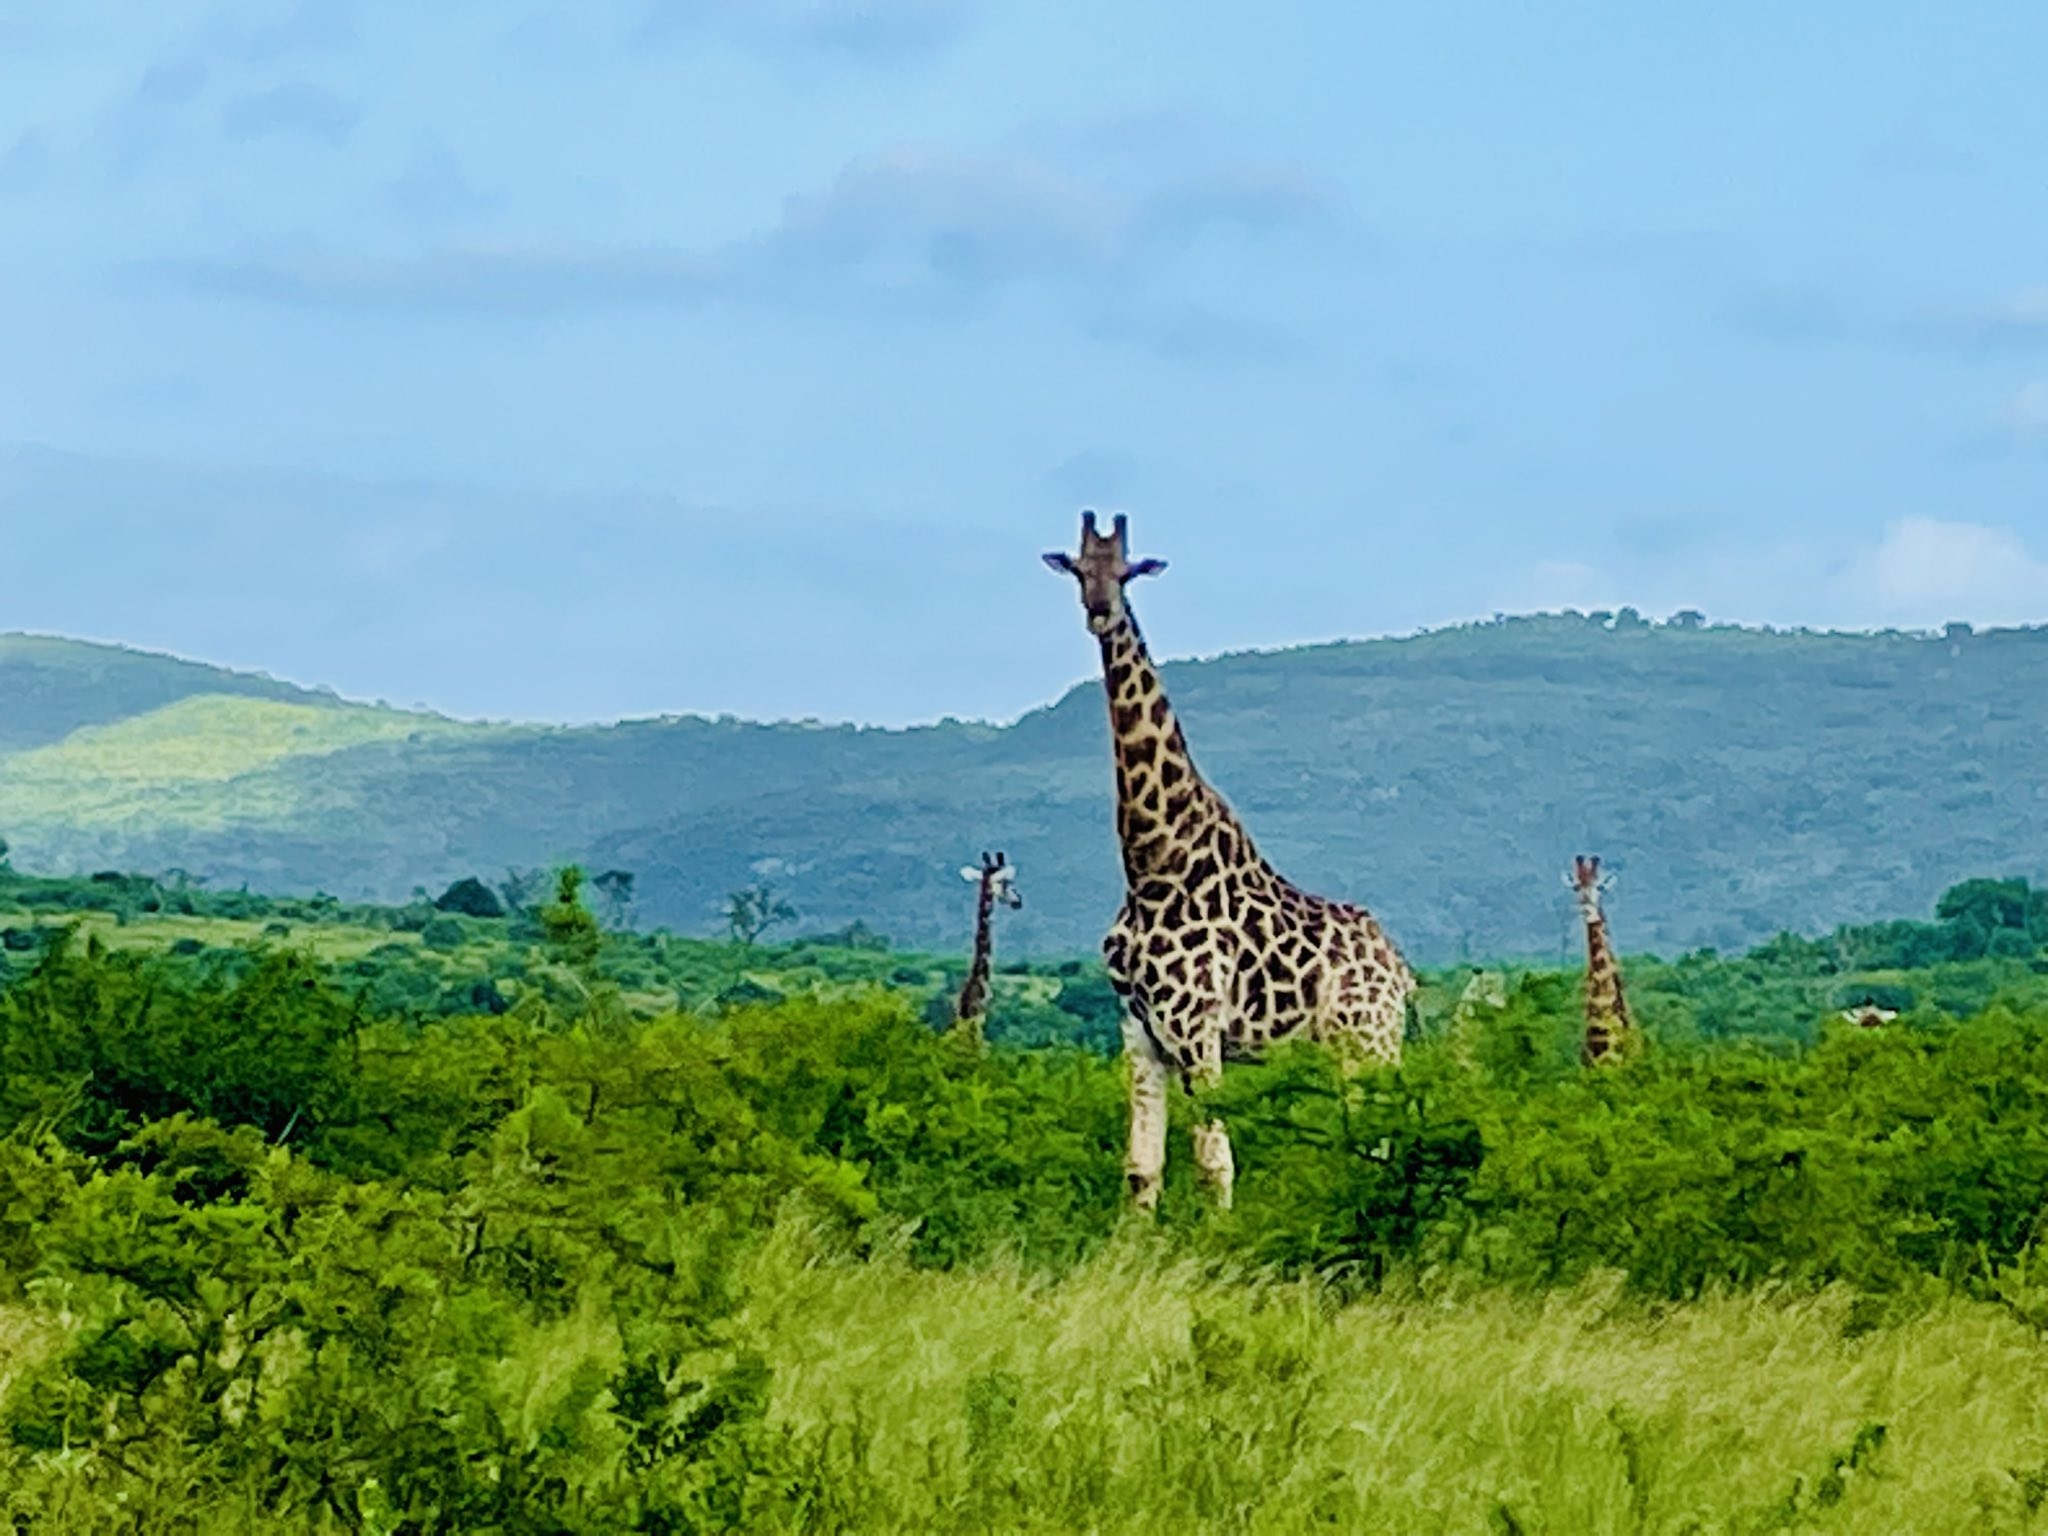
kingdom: Animalia
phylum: Chordata
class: Mammalia
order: Artiodactyla
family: Giraffidae
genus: Giraffa
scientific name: Giraffa giraffa
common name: Southern giraffe
